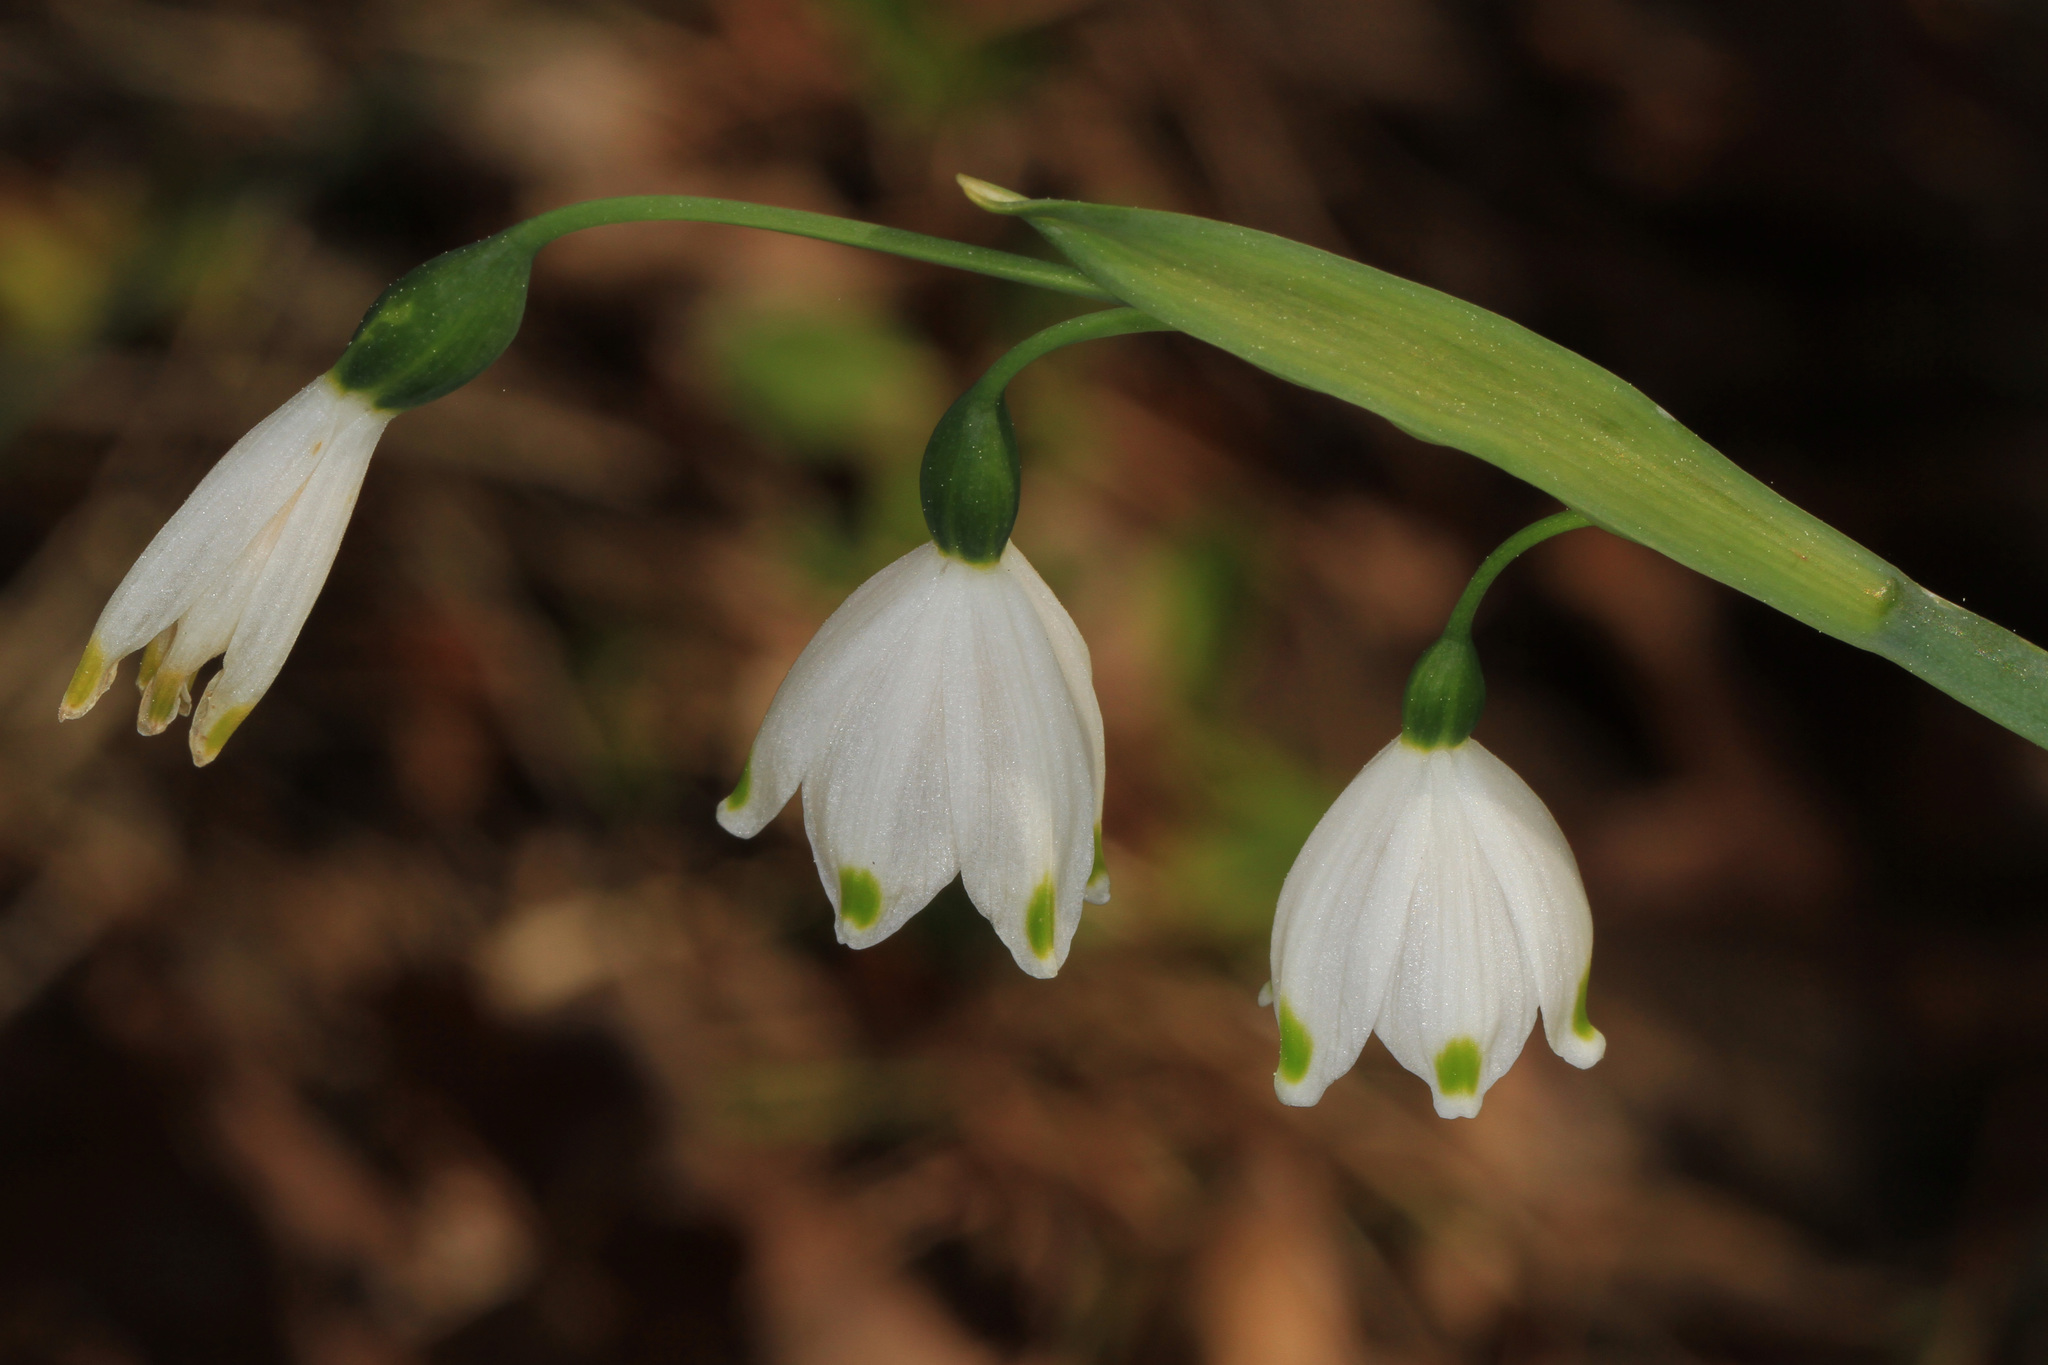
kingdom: Plantae
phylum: Tracheophyta
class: Liliopsida
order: Asparagales
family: Amaryllidaceae
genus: Leucojum
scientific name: Leucojum aestivum
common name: Summer snowflake
